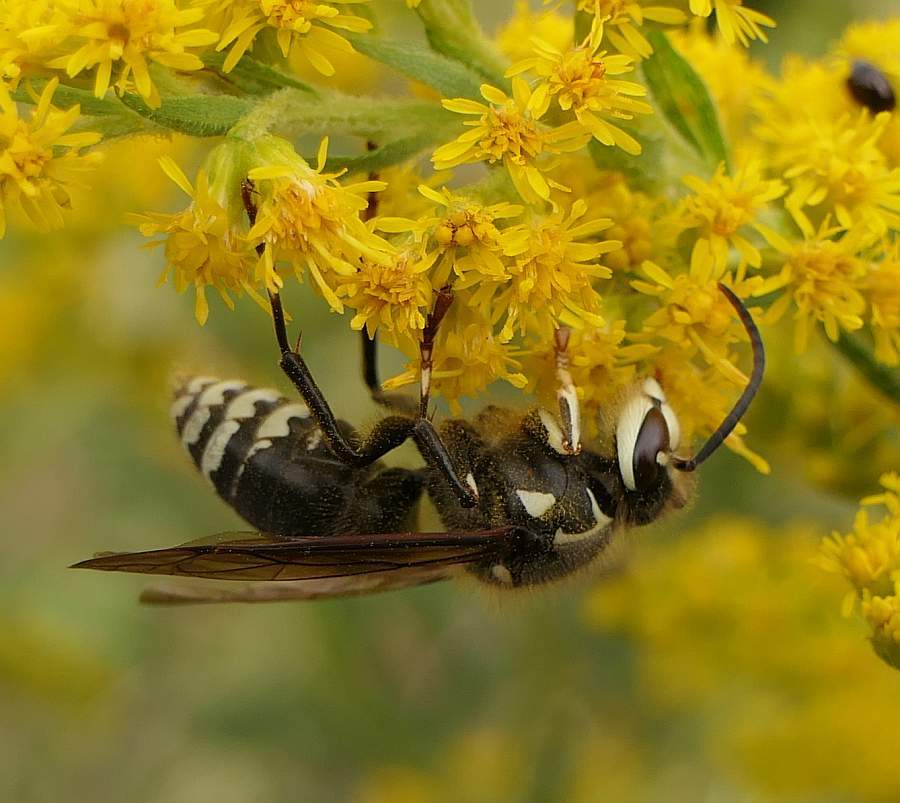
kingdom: Animalia
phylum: Arthropoda
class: Insecta
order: Hymenoptera
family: Vespidae
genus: Dolichovespula
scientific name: Dolichovespula maculata
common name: Bald-faced hornet
